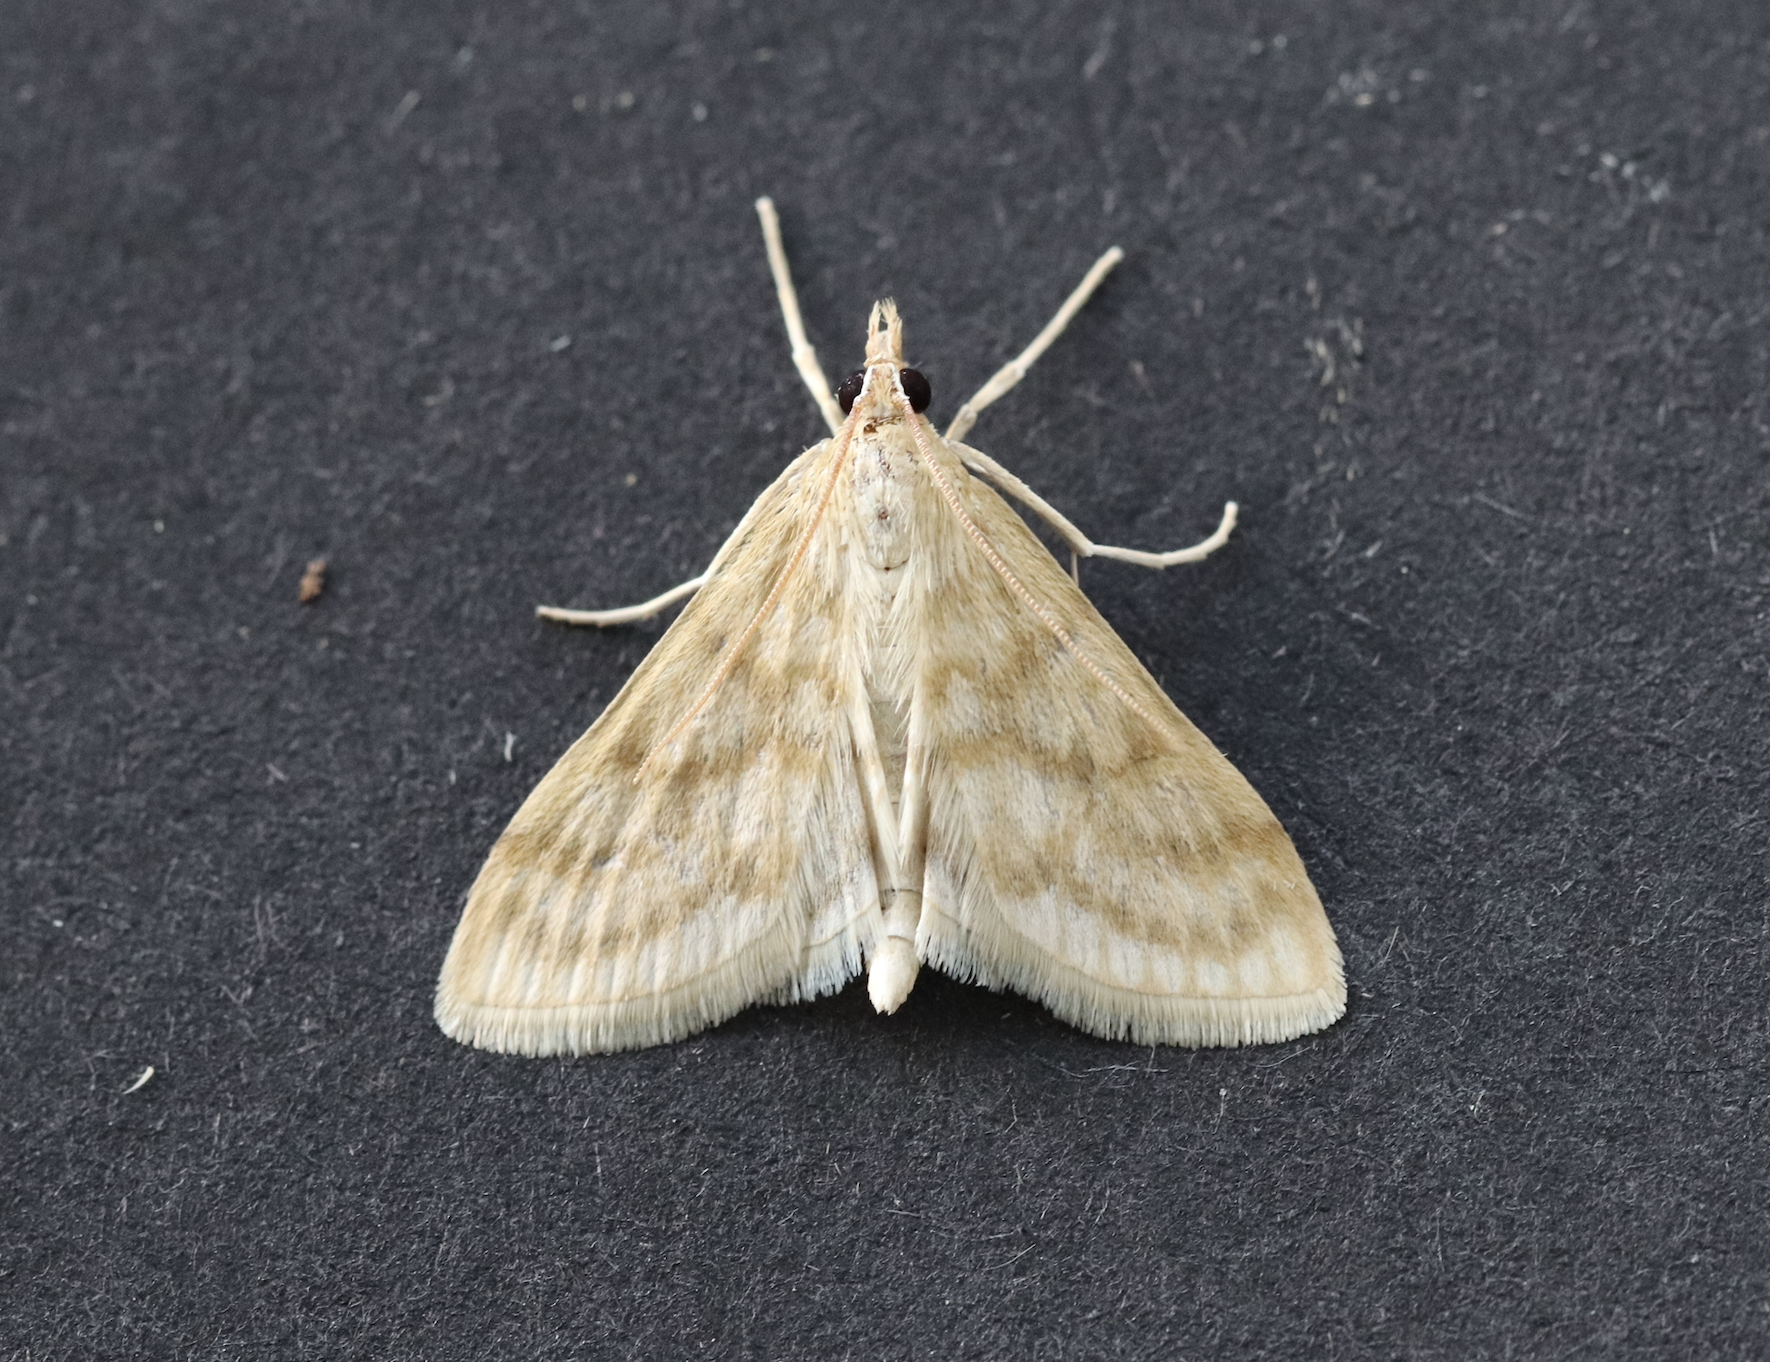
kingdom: Animalia
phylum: Arthropoda
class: Insecta
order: Lepidoptera
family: Crambidae
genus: Paracorsia
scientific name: Paracorsia repandalis
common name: Mullein moth
